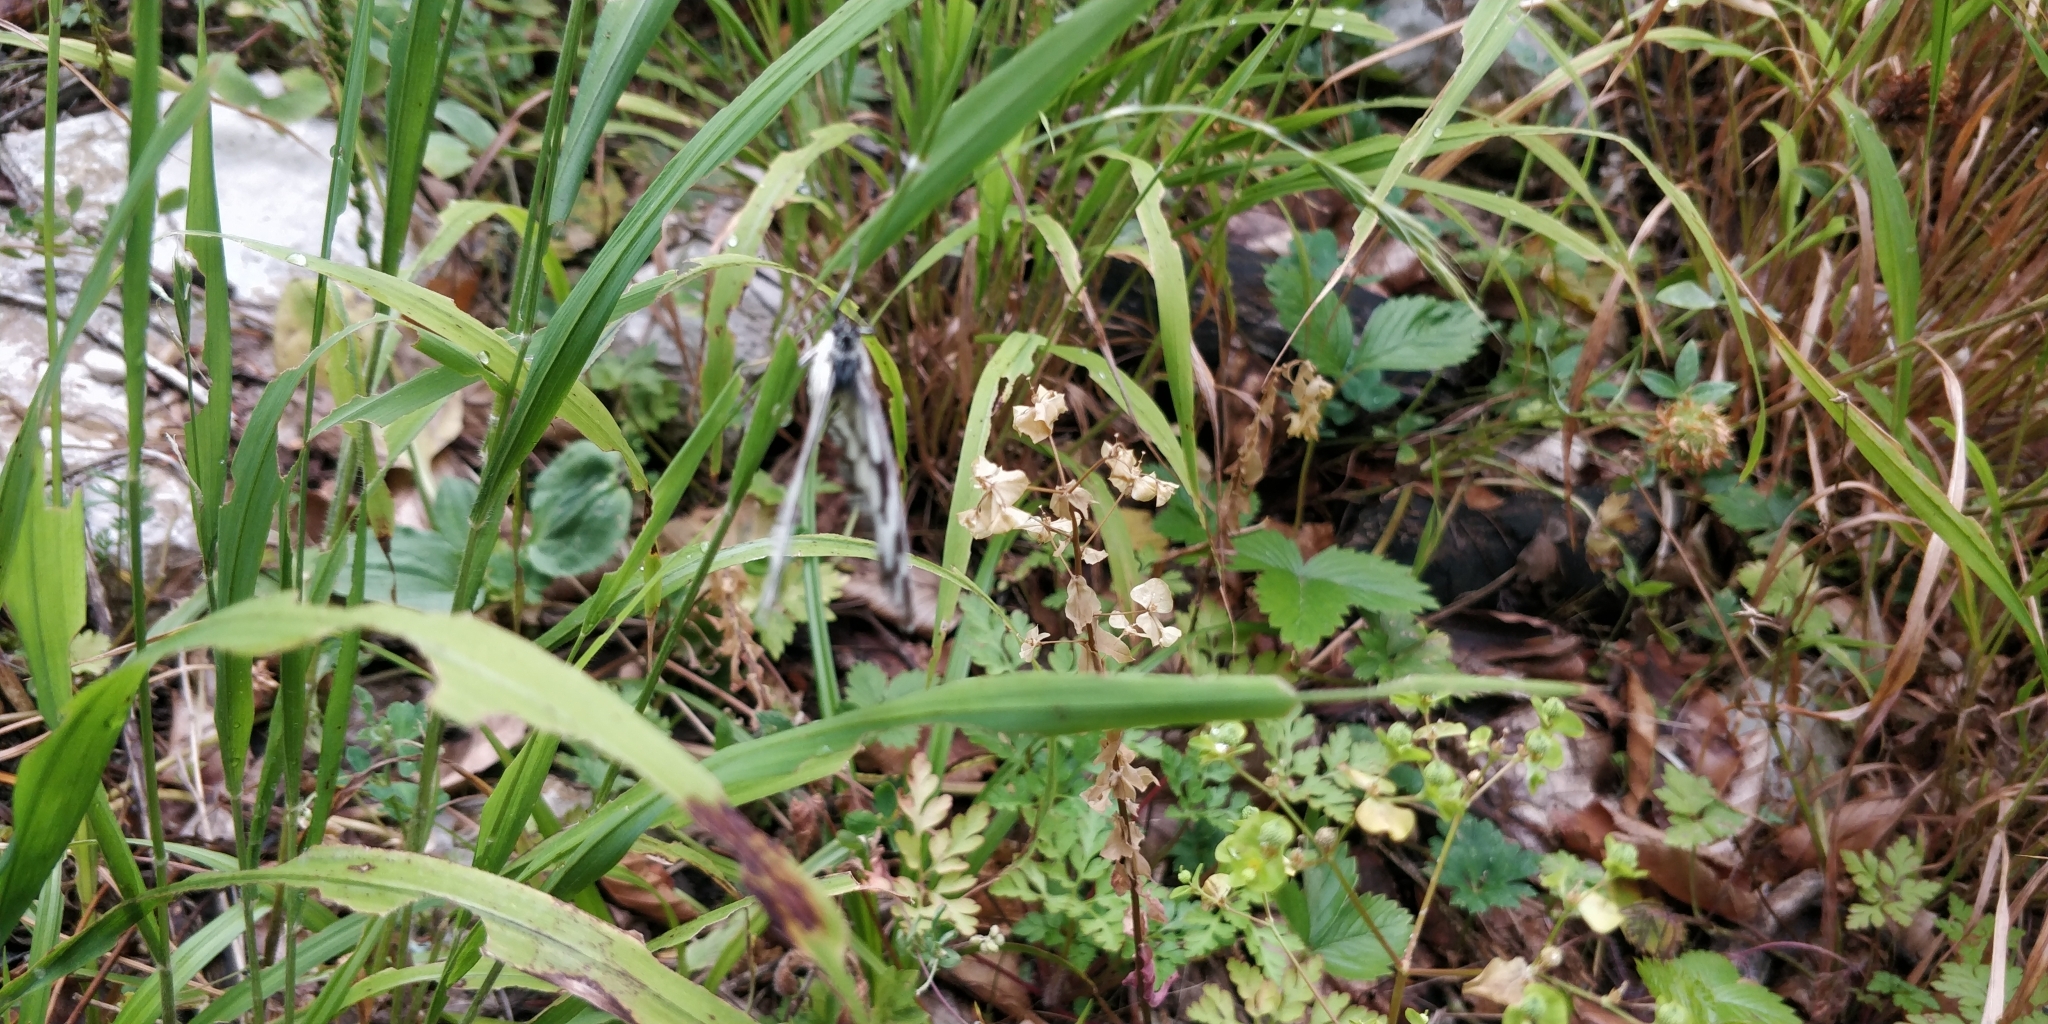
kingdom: Animalia
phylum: Arthropoda
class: Insecta
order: Lepidoptera
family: Nymphalidae
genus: Melanargia
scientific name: Melanargia galathea
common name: Marbled white
